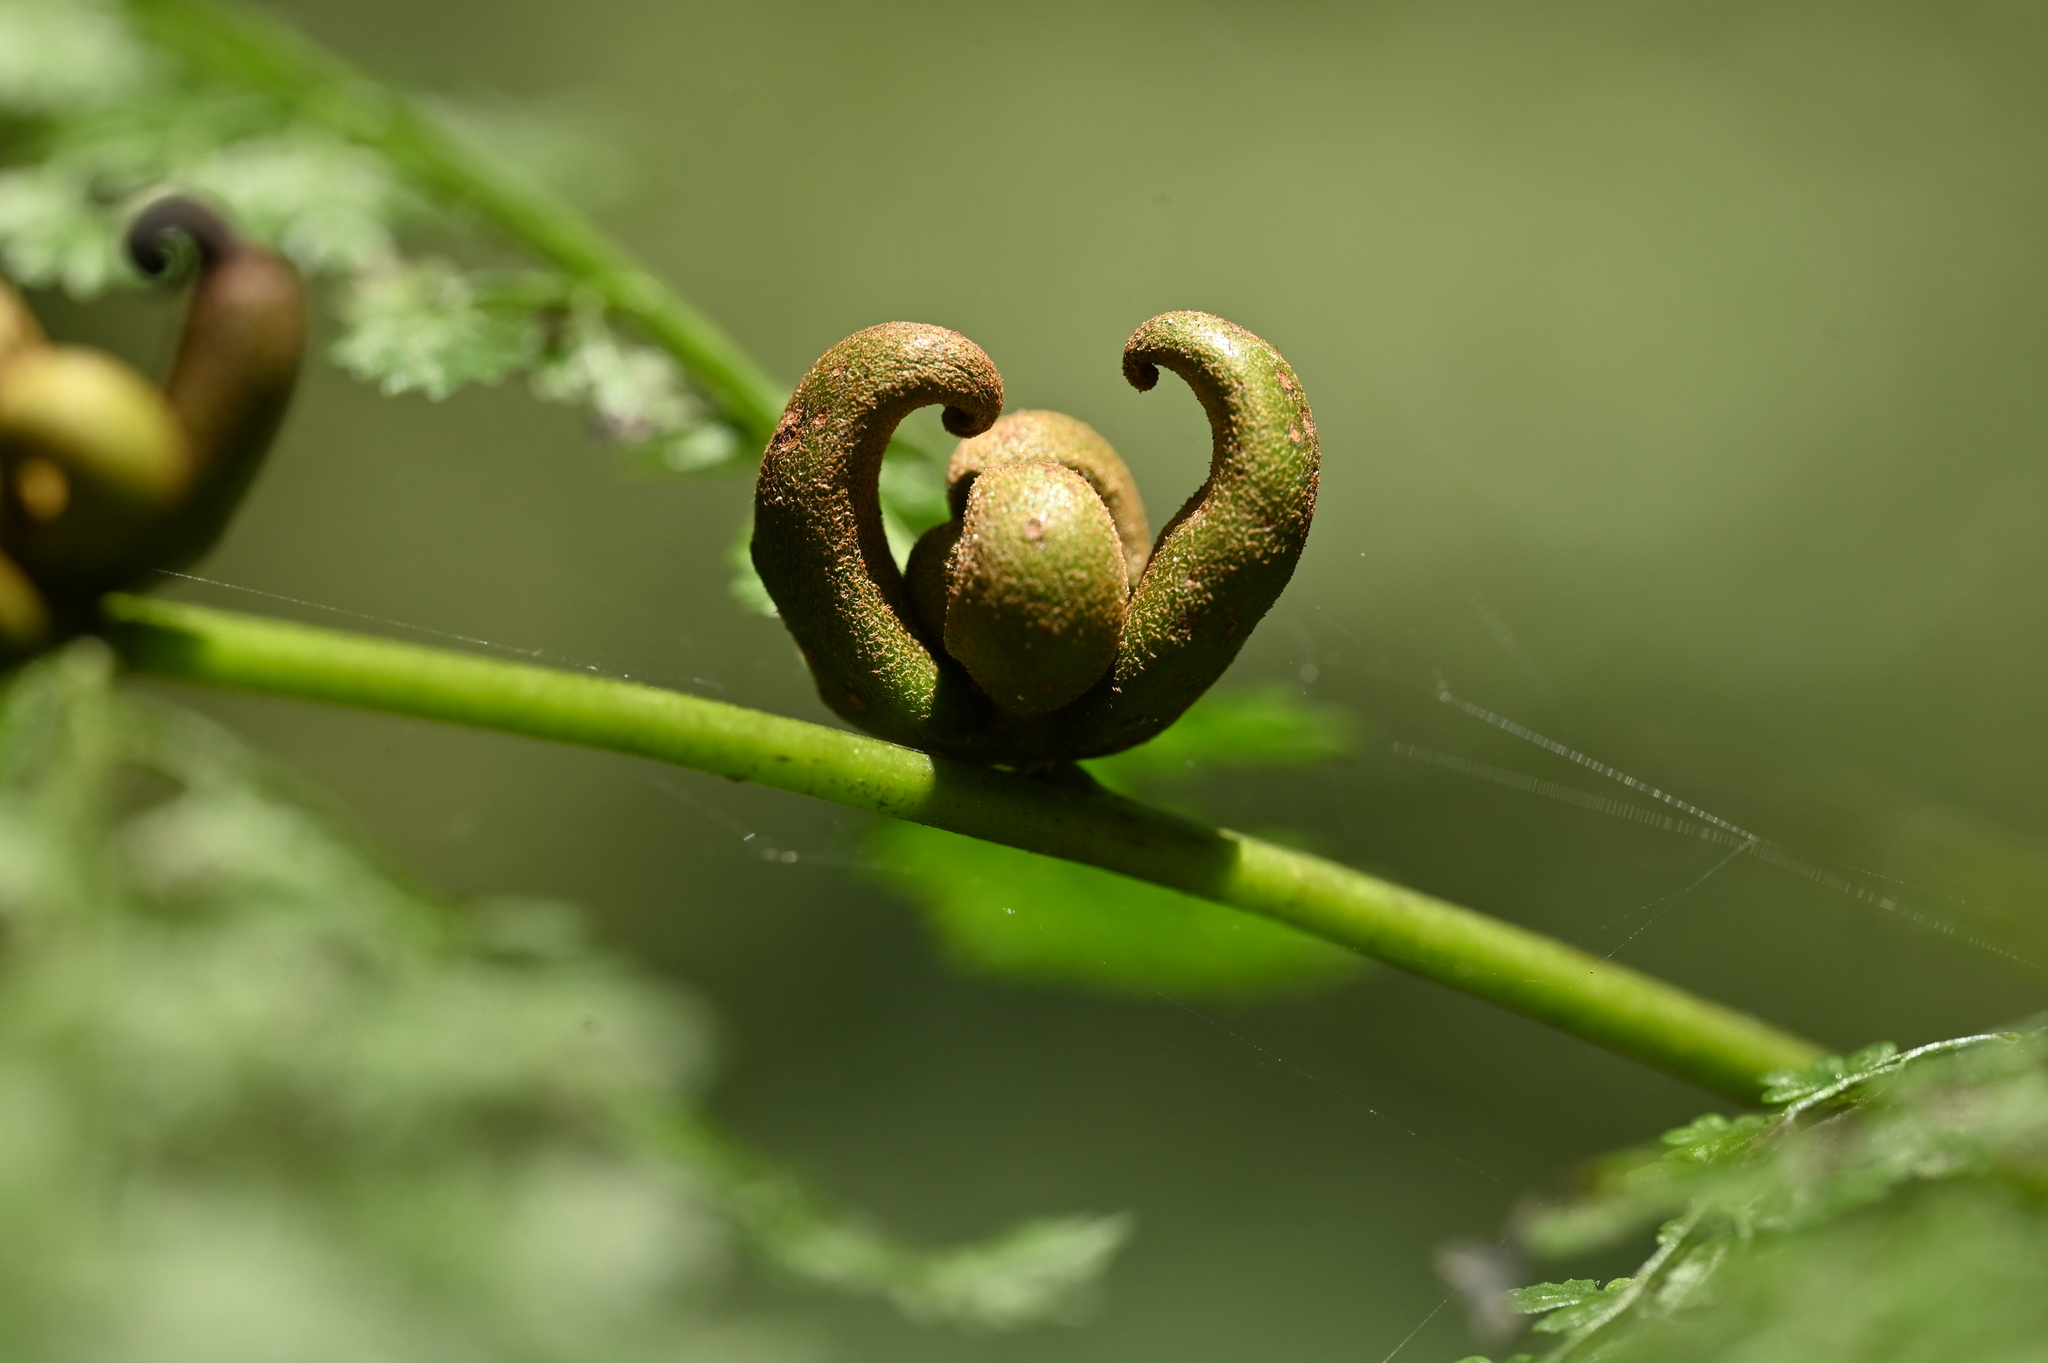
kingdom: Plantae
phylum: Tracheophyta
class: Polypodiopsida
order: Polypodiales
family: Dennstaedtiaceae
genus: Monachosorum
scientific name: Monachosorum henryi
